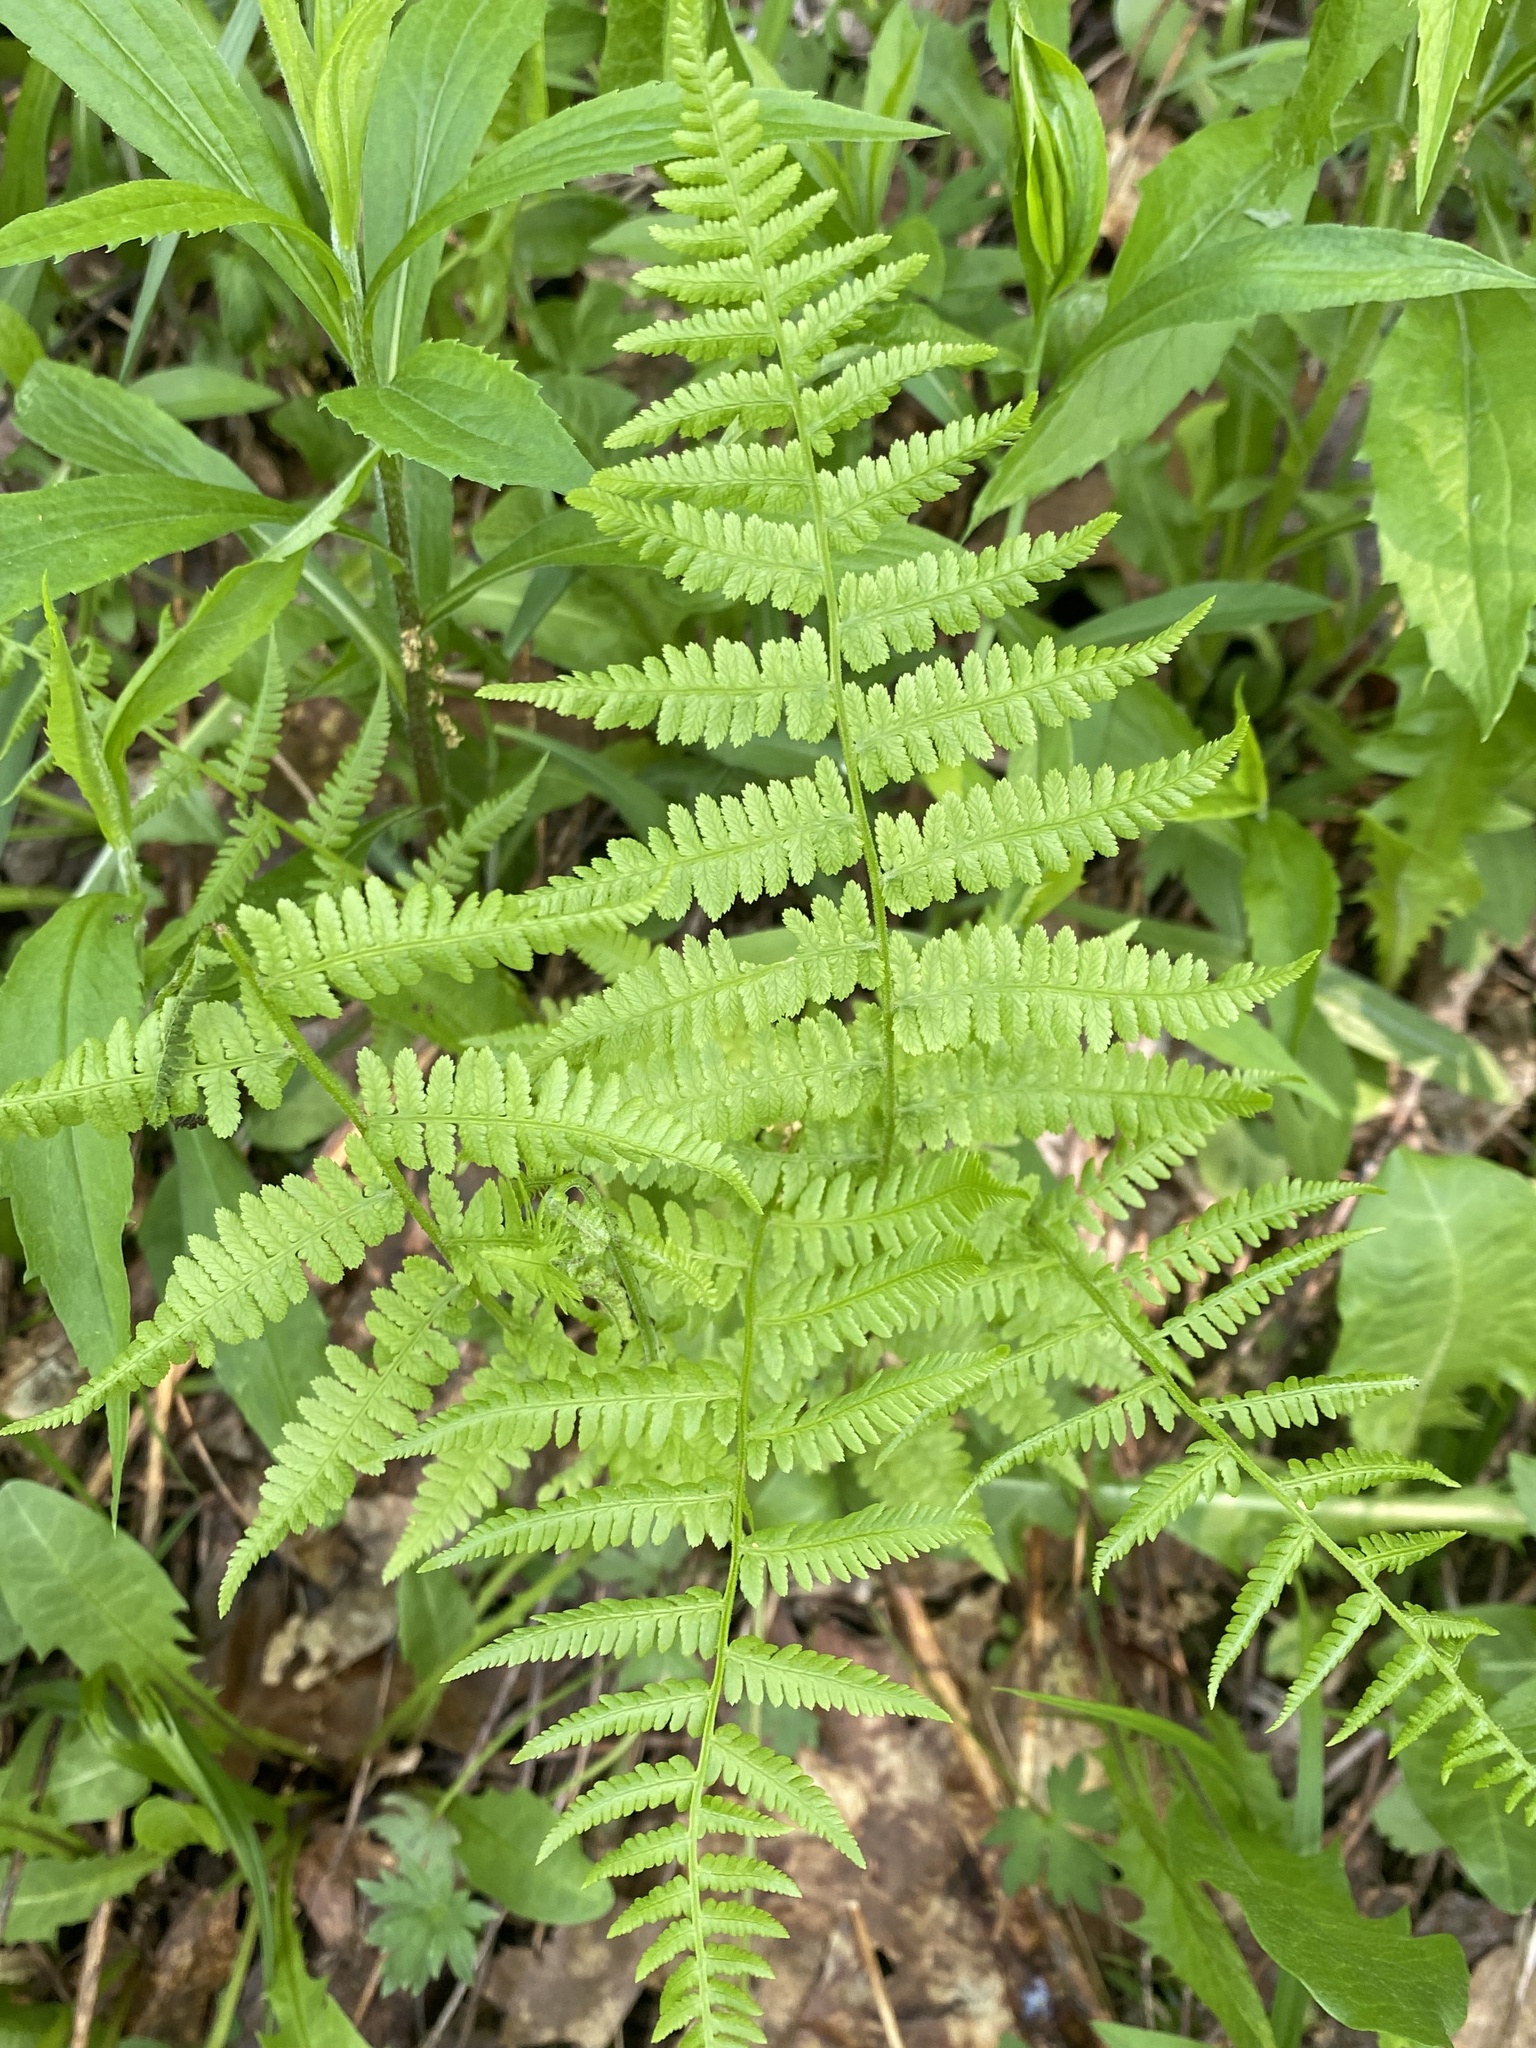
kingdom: Plantae
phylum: Tracheophyta
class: Polypodiopsida
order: Polypodiales
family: Athyriaceae
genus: Athyrium
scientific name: Athyrium angustum
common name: Northern lady fern
